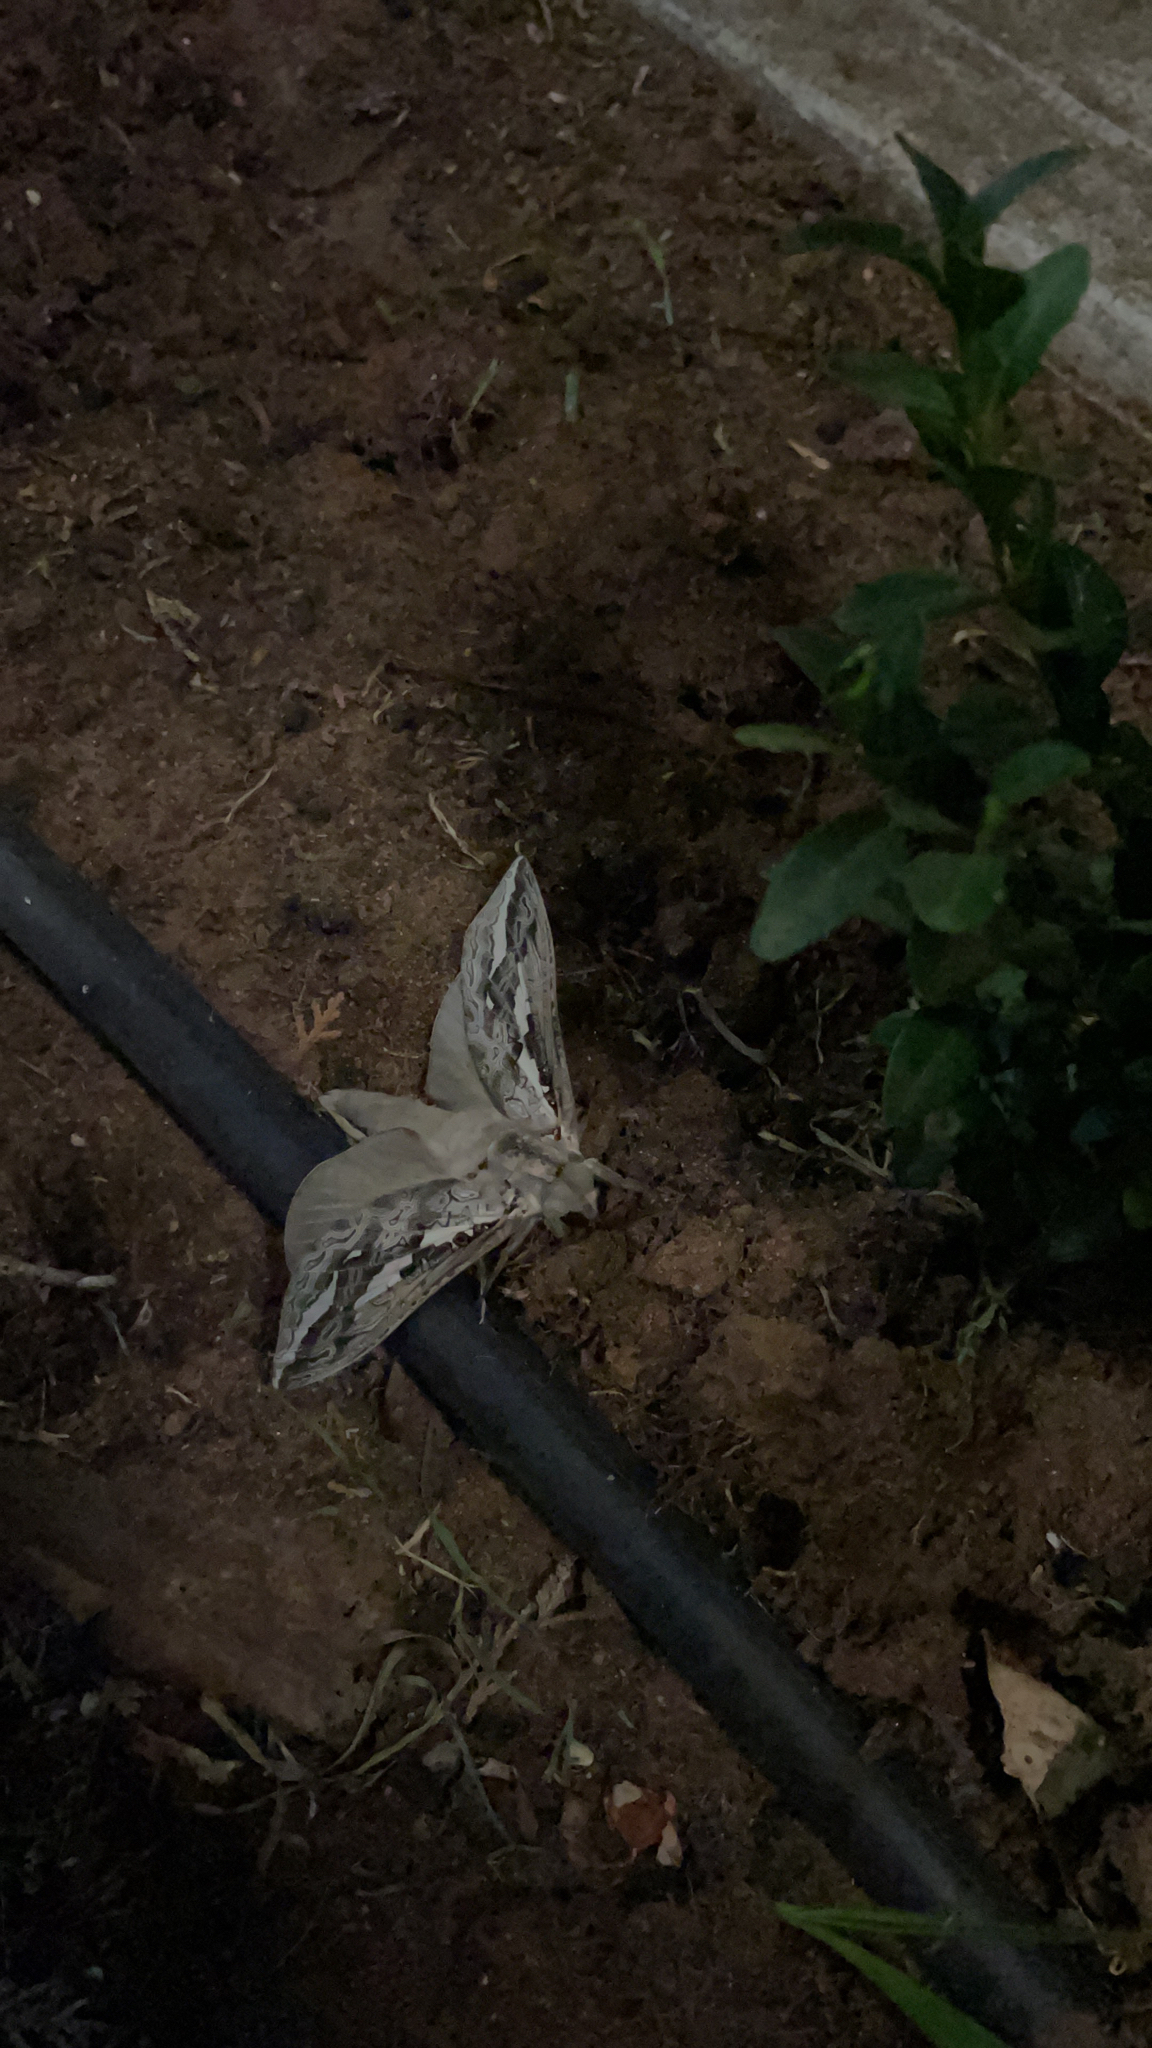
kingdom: Animalia
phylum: Arthropoda
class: Insecta
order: Lepidoptera
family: Hepialidae
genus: Abantiades
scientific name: Abantiades marcidus
